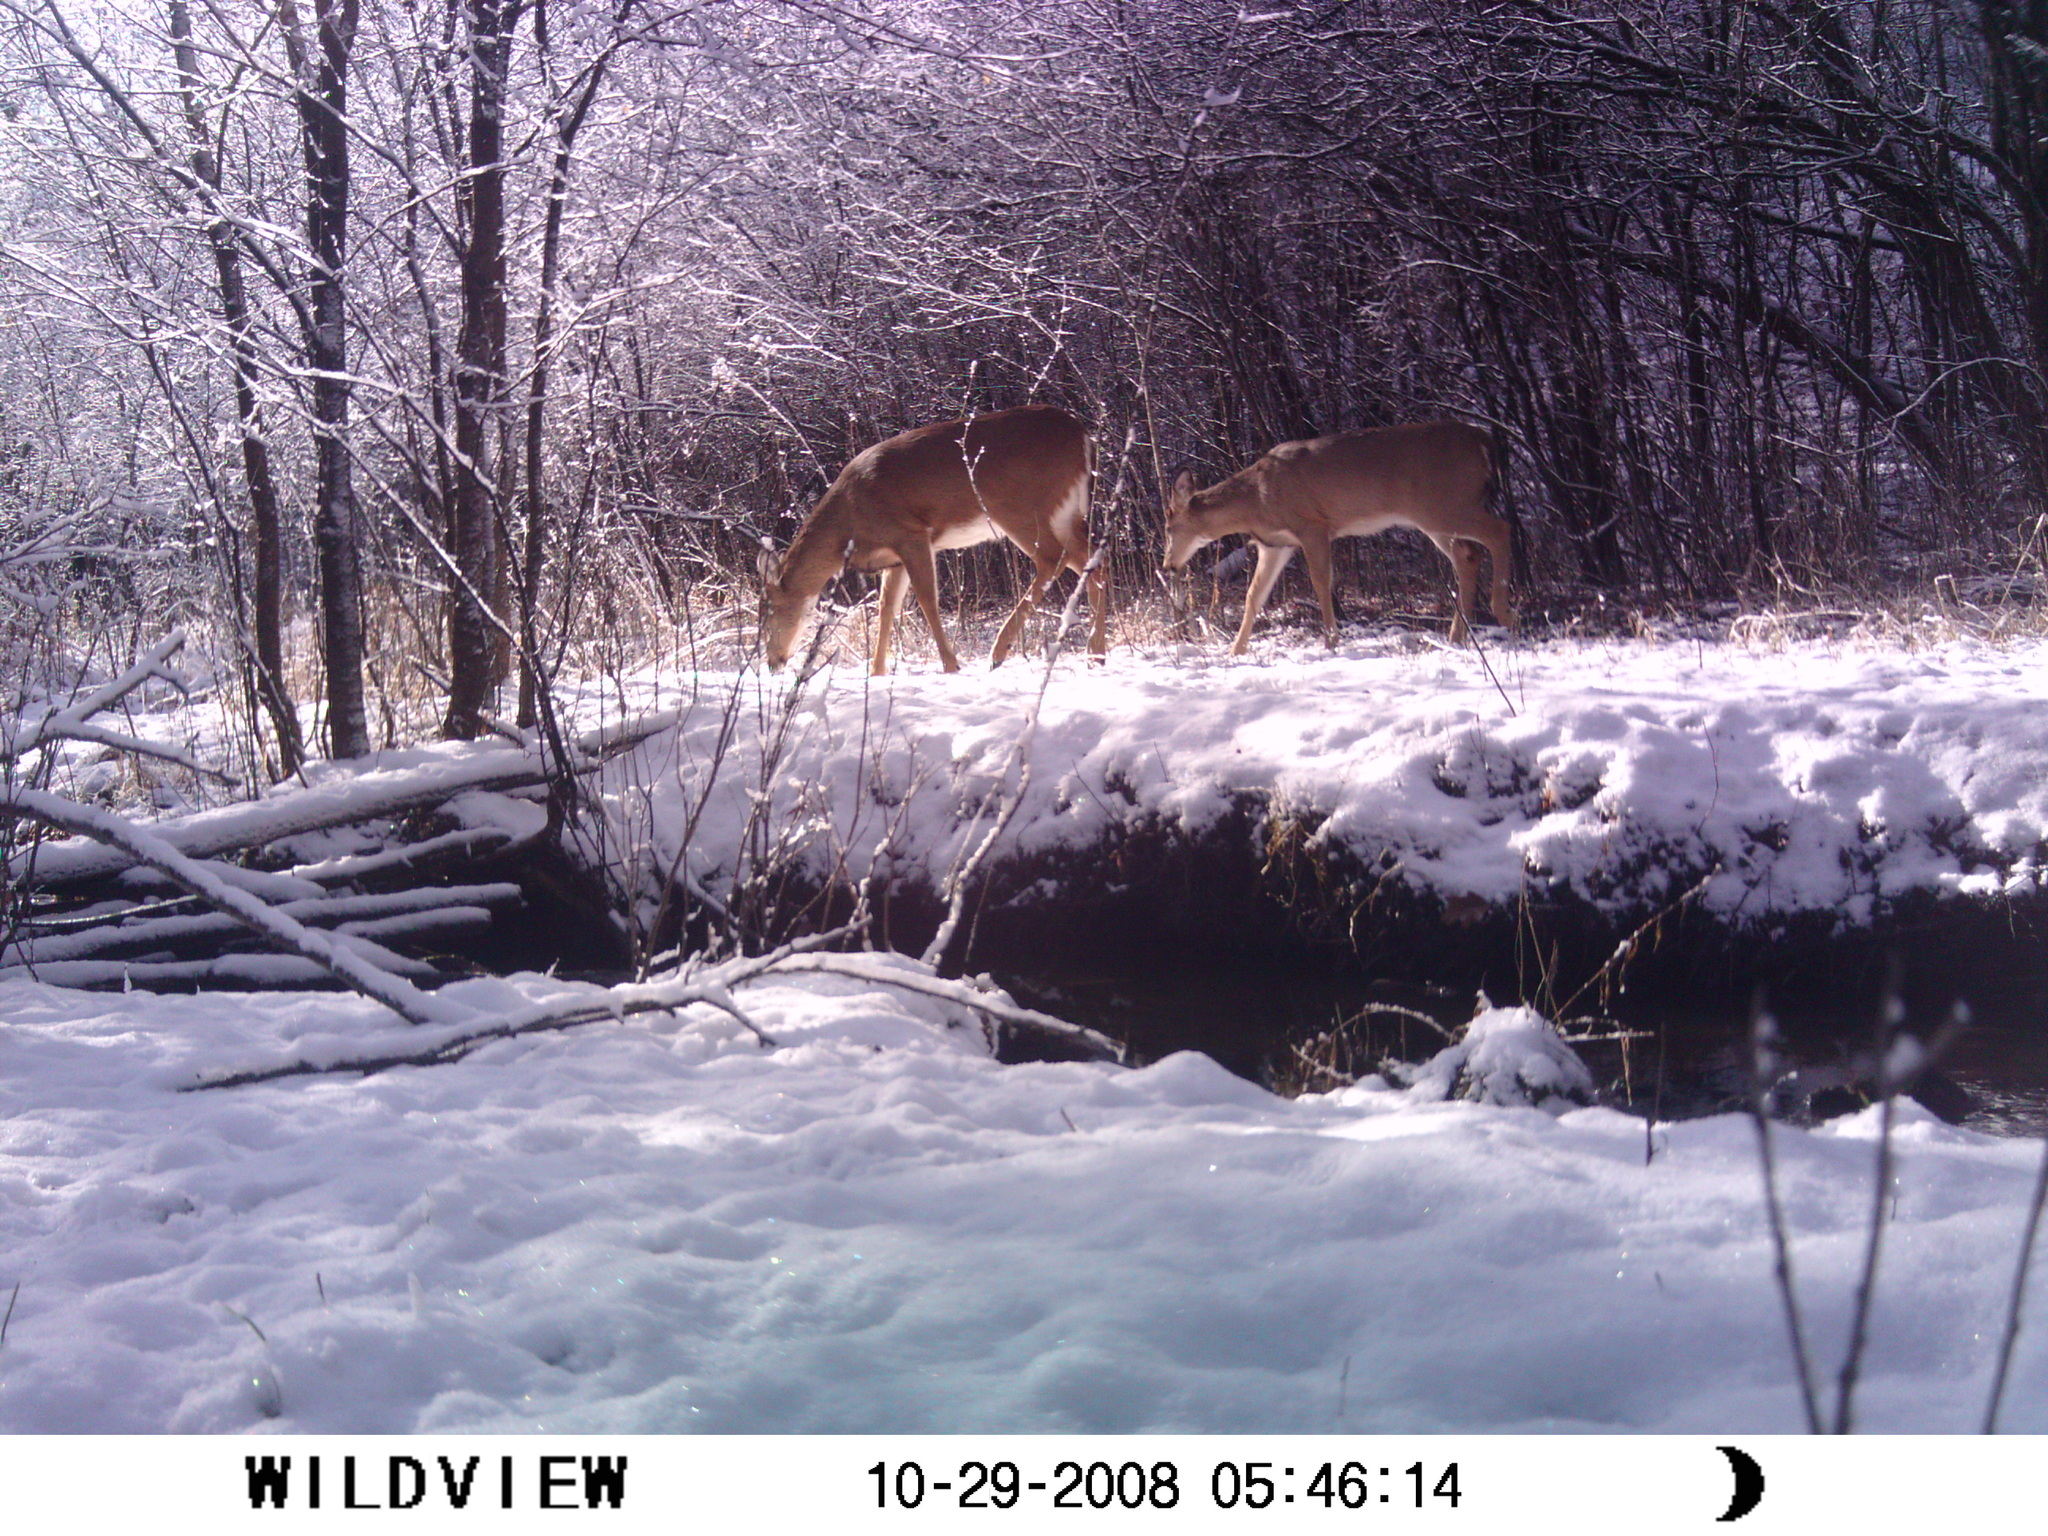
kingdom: Animalia
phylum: Chordata
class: Mammalia
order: Artiodactyla
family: Cervidae
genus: Odocoileus
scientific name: Odocoileus virginianus
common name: White-tailed deer
